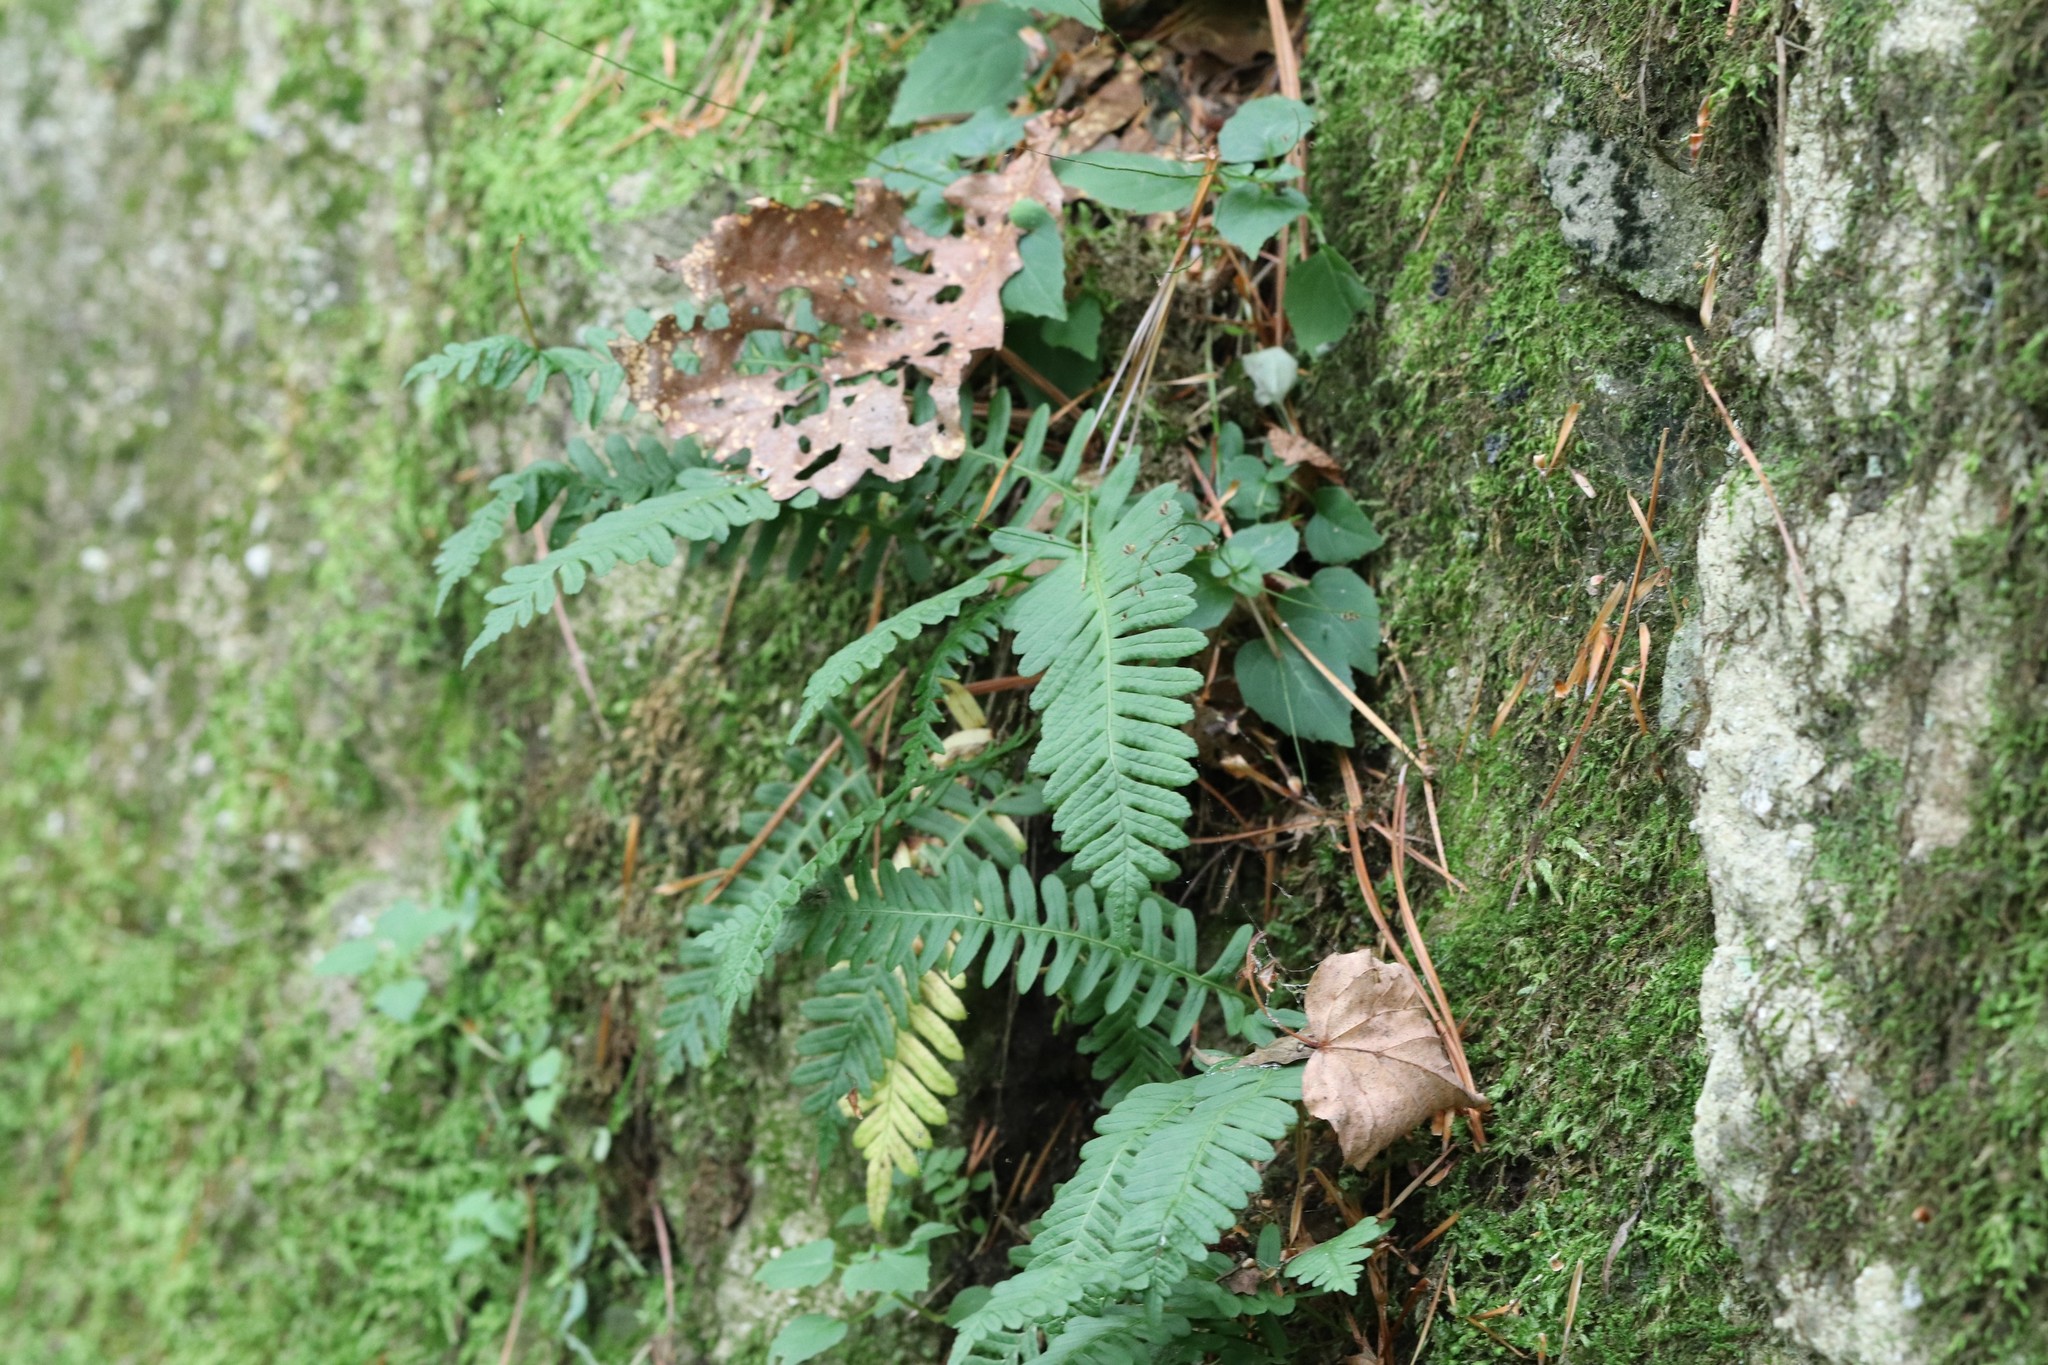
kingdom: Plantae
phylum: Tracheophyta
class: Polypodiopsida
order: Polypodiales
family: Polypodiaceae
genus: Polypodium
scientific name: Polypodium sibiricum
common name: Siberian polypody
